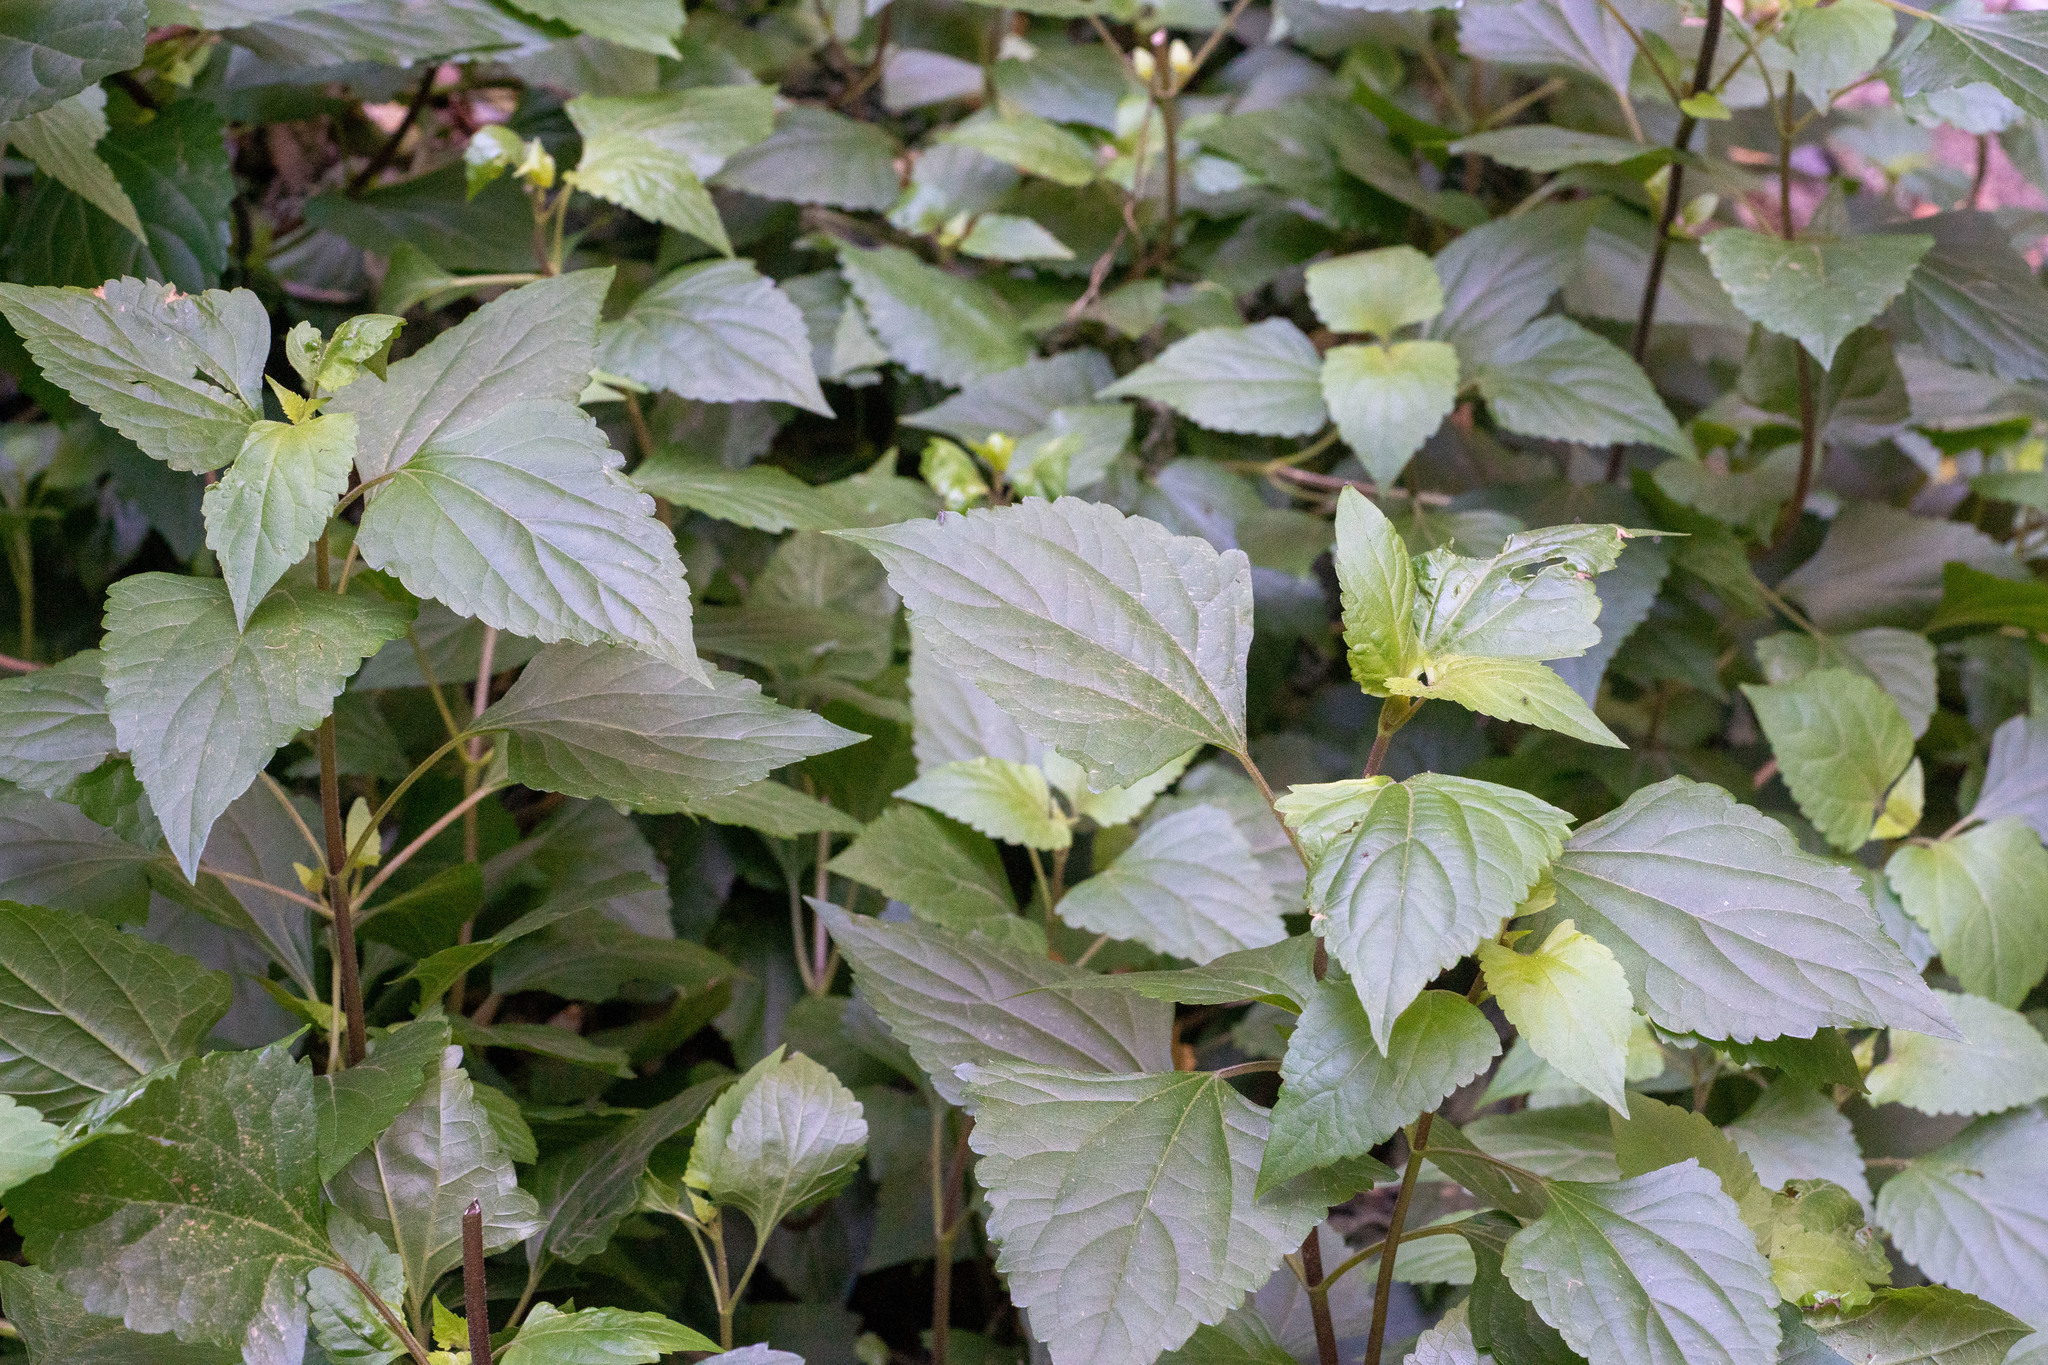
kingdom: Plantae
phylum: Tracheophyta
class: Magnoliopsida
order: Asterales
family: Asteraceae
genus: Ageratina
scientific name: Ageratina adenophora
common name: Sticky snakeroot
